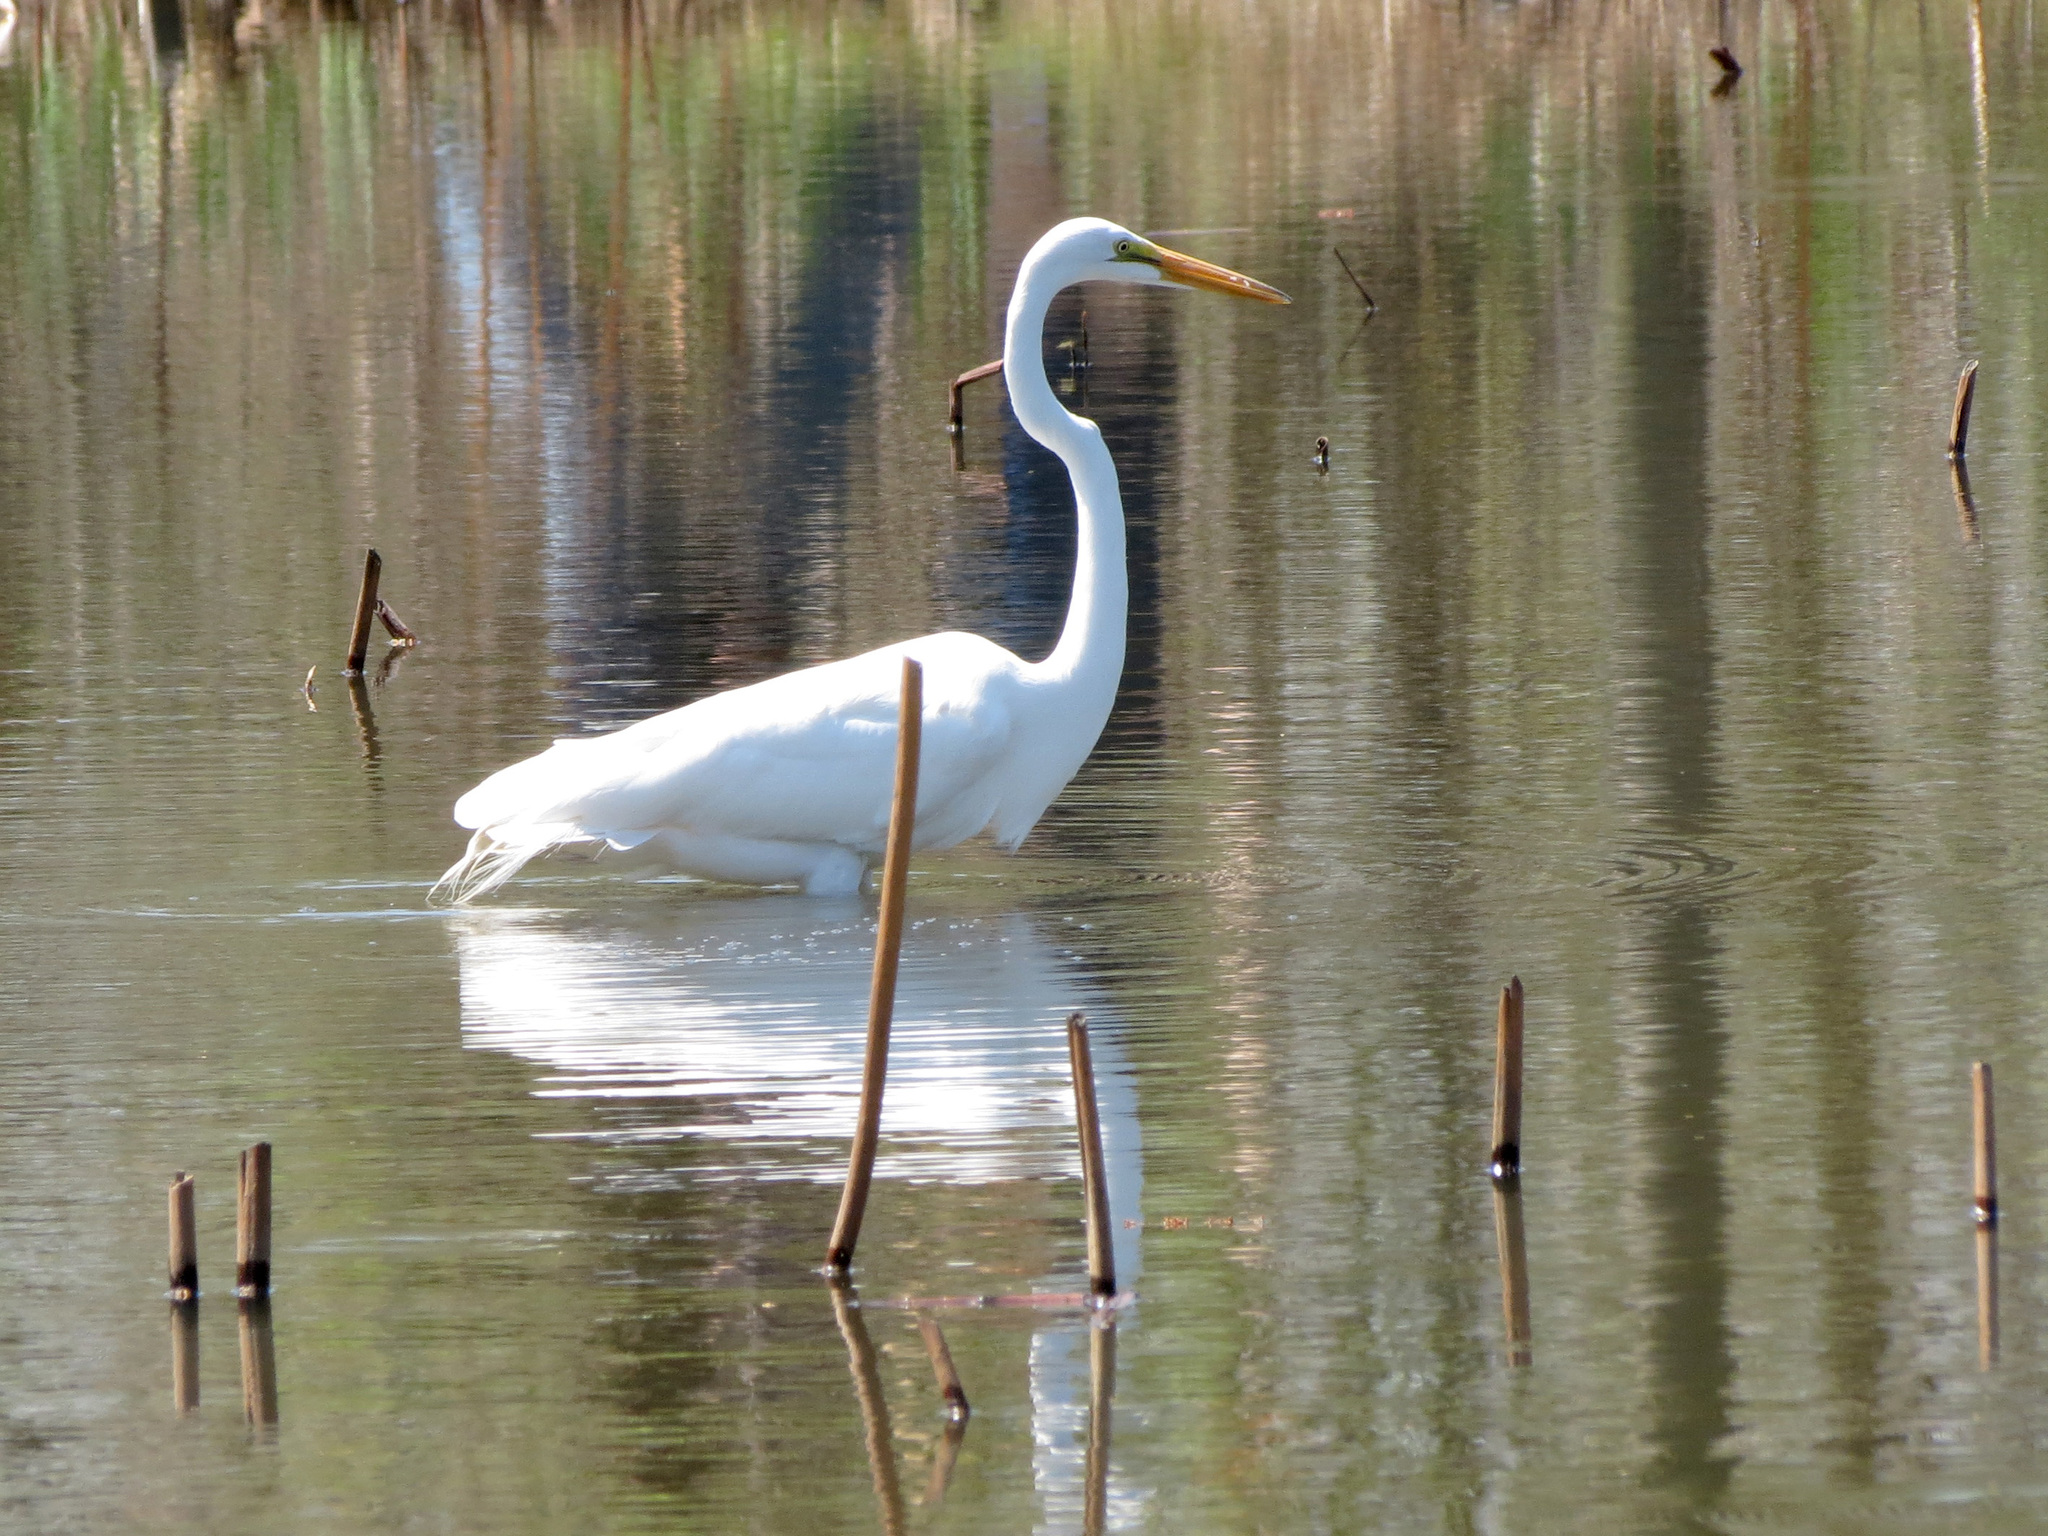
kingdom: Animalia
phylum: Chordata
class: Aves
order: Pelecaniformes
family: Ardeidae
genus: Ardea
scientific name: Ardea alba
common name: Great egret
